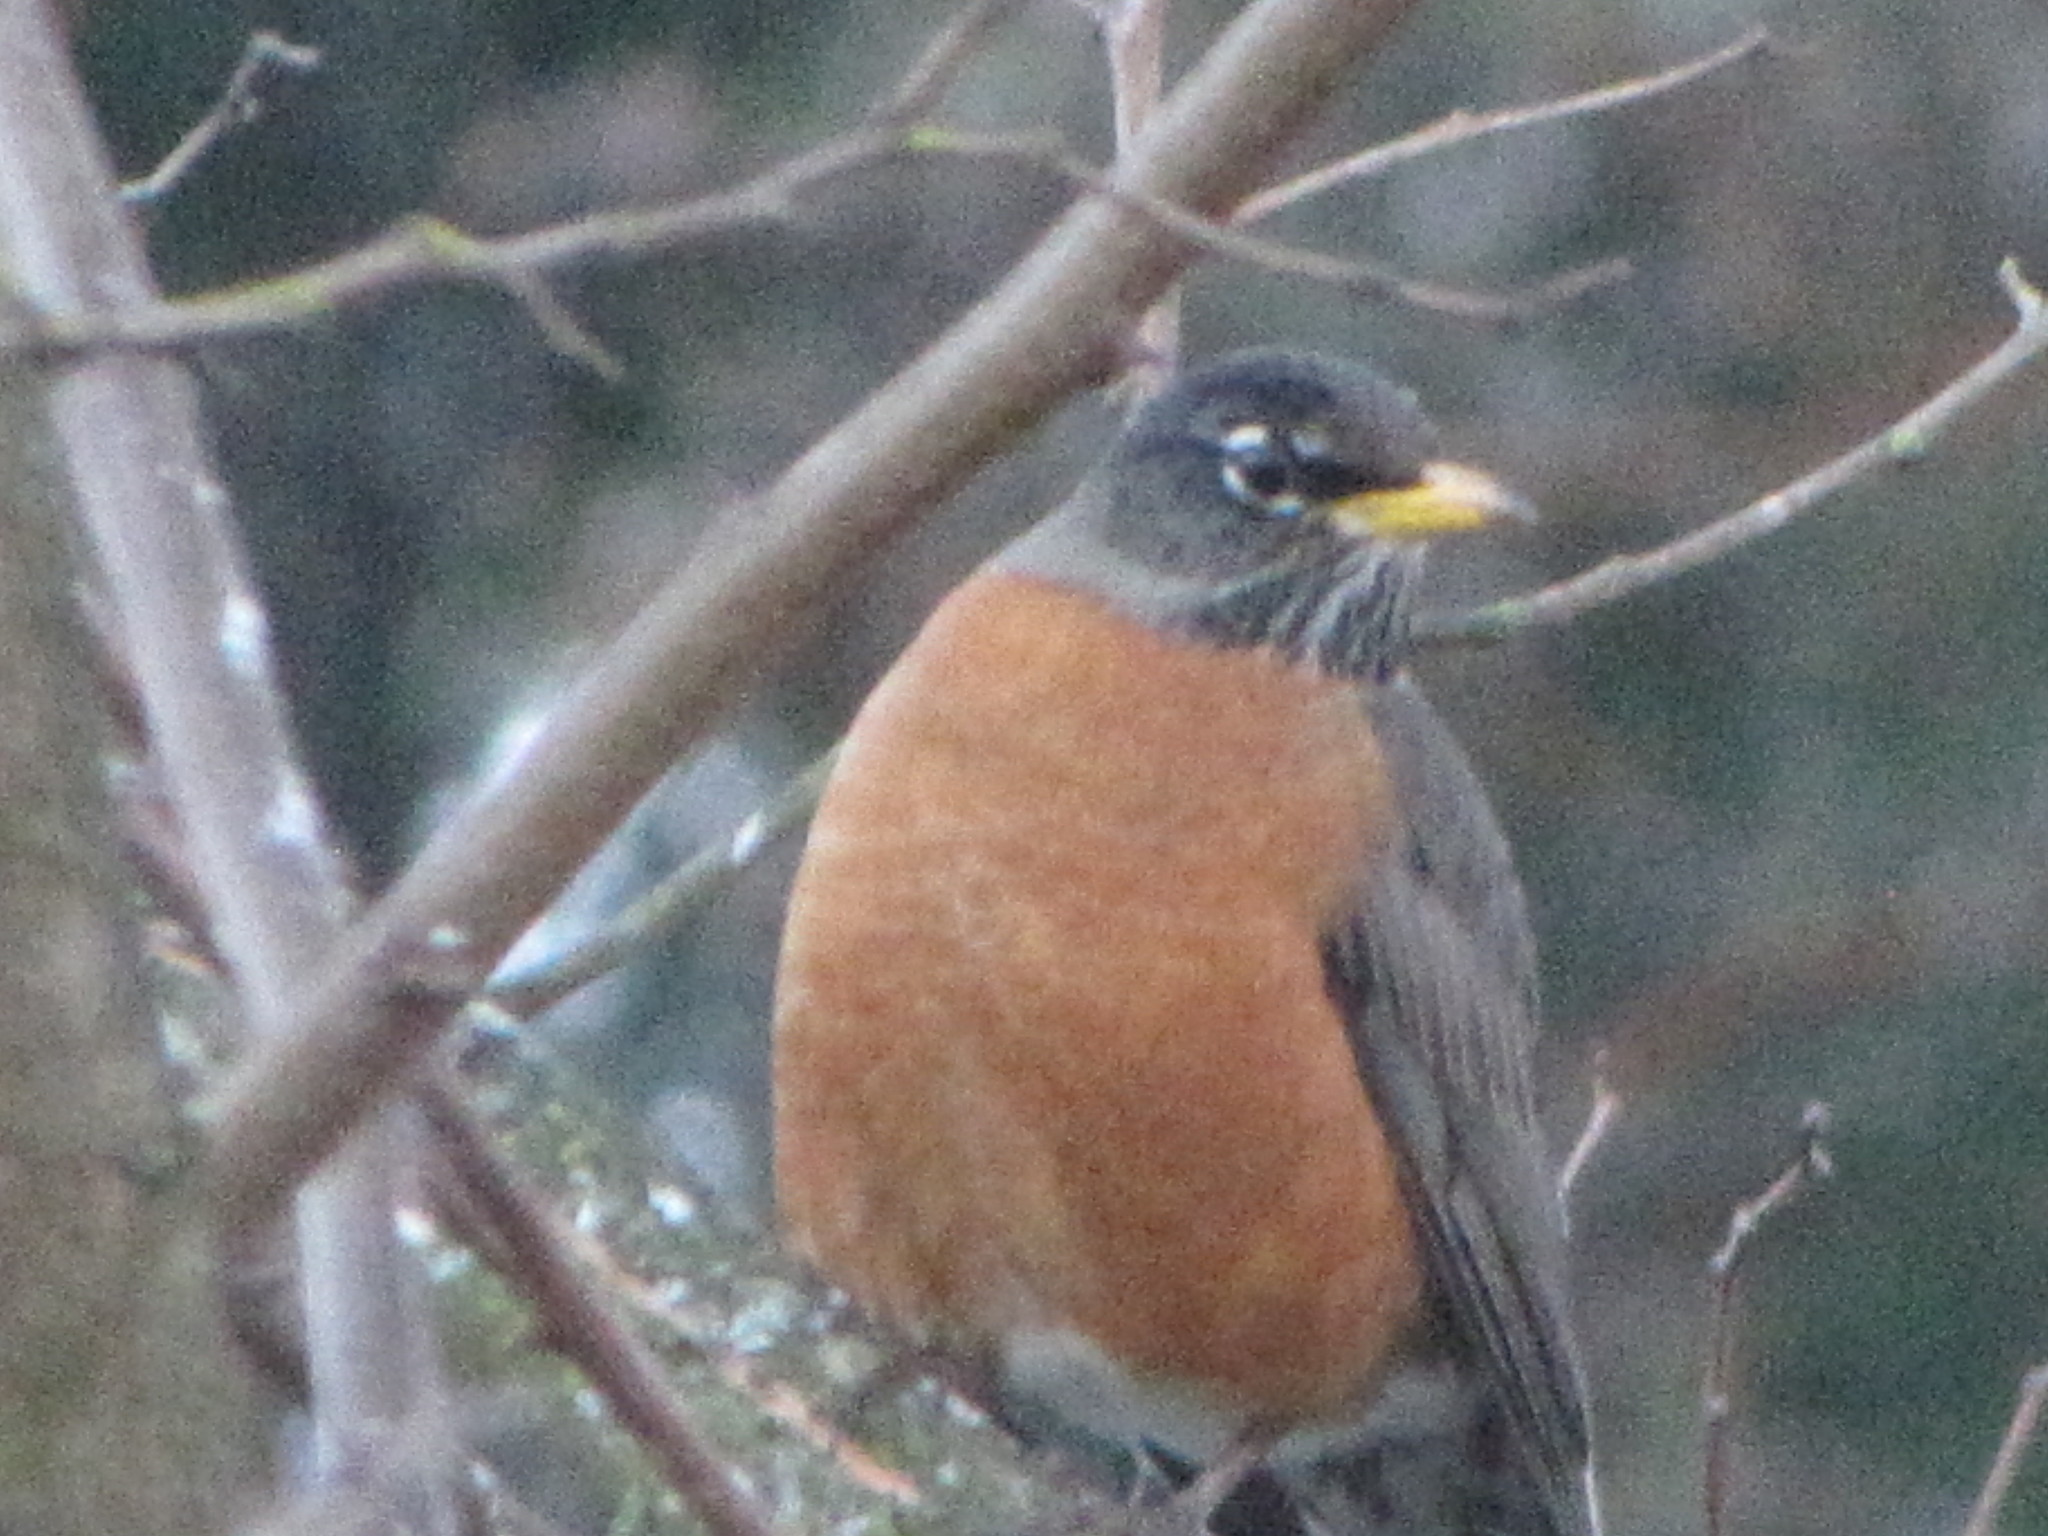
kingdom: Animalia
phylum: Chordata
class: Aves
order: Passeriformes
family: Turdidae
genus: Turdus
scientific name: Turdus migratorius
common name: American robin
